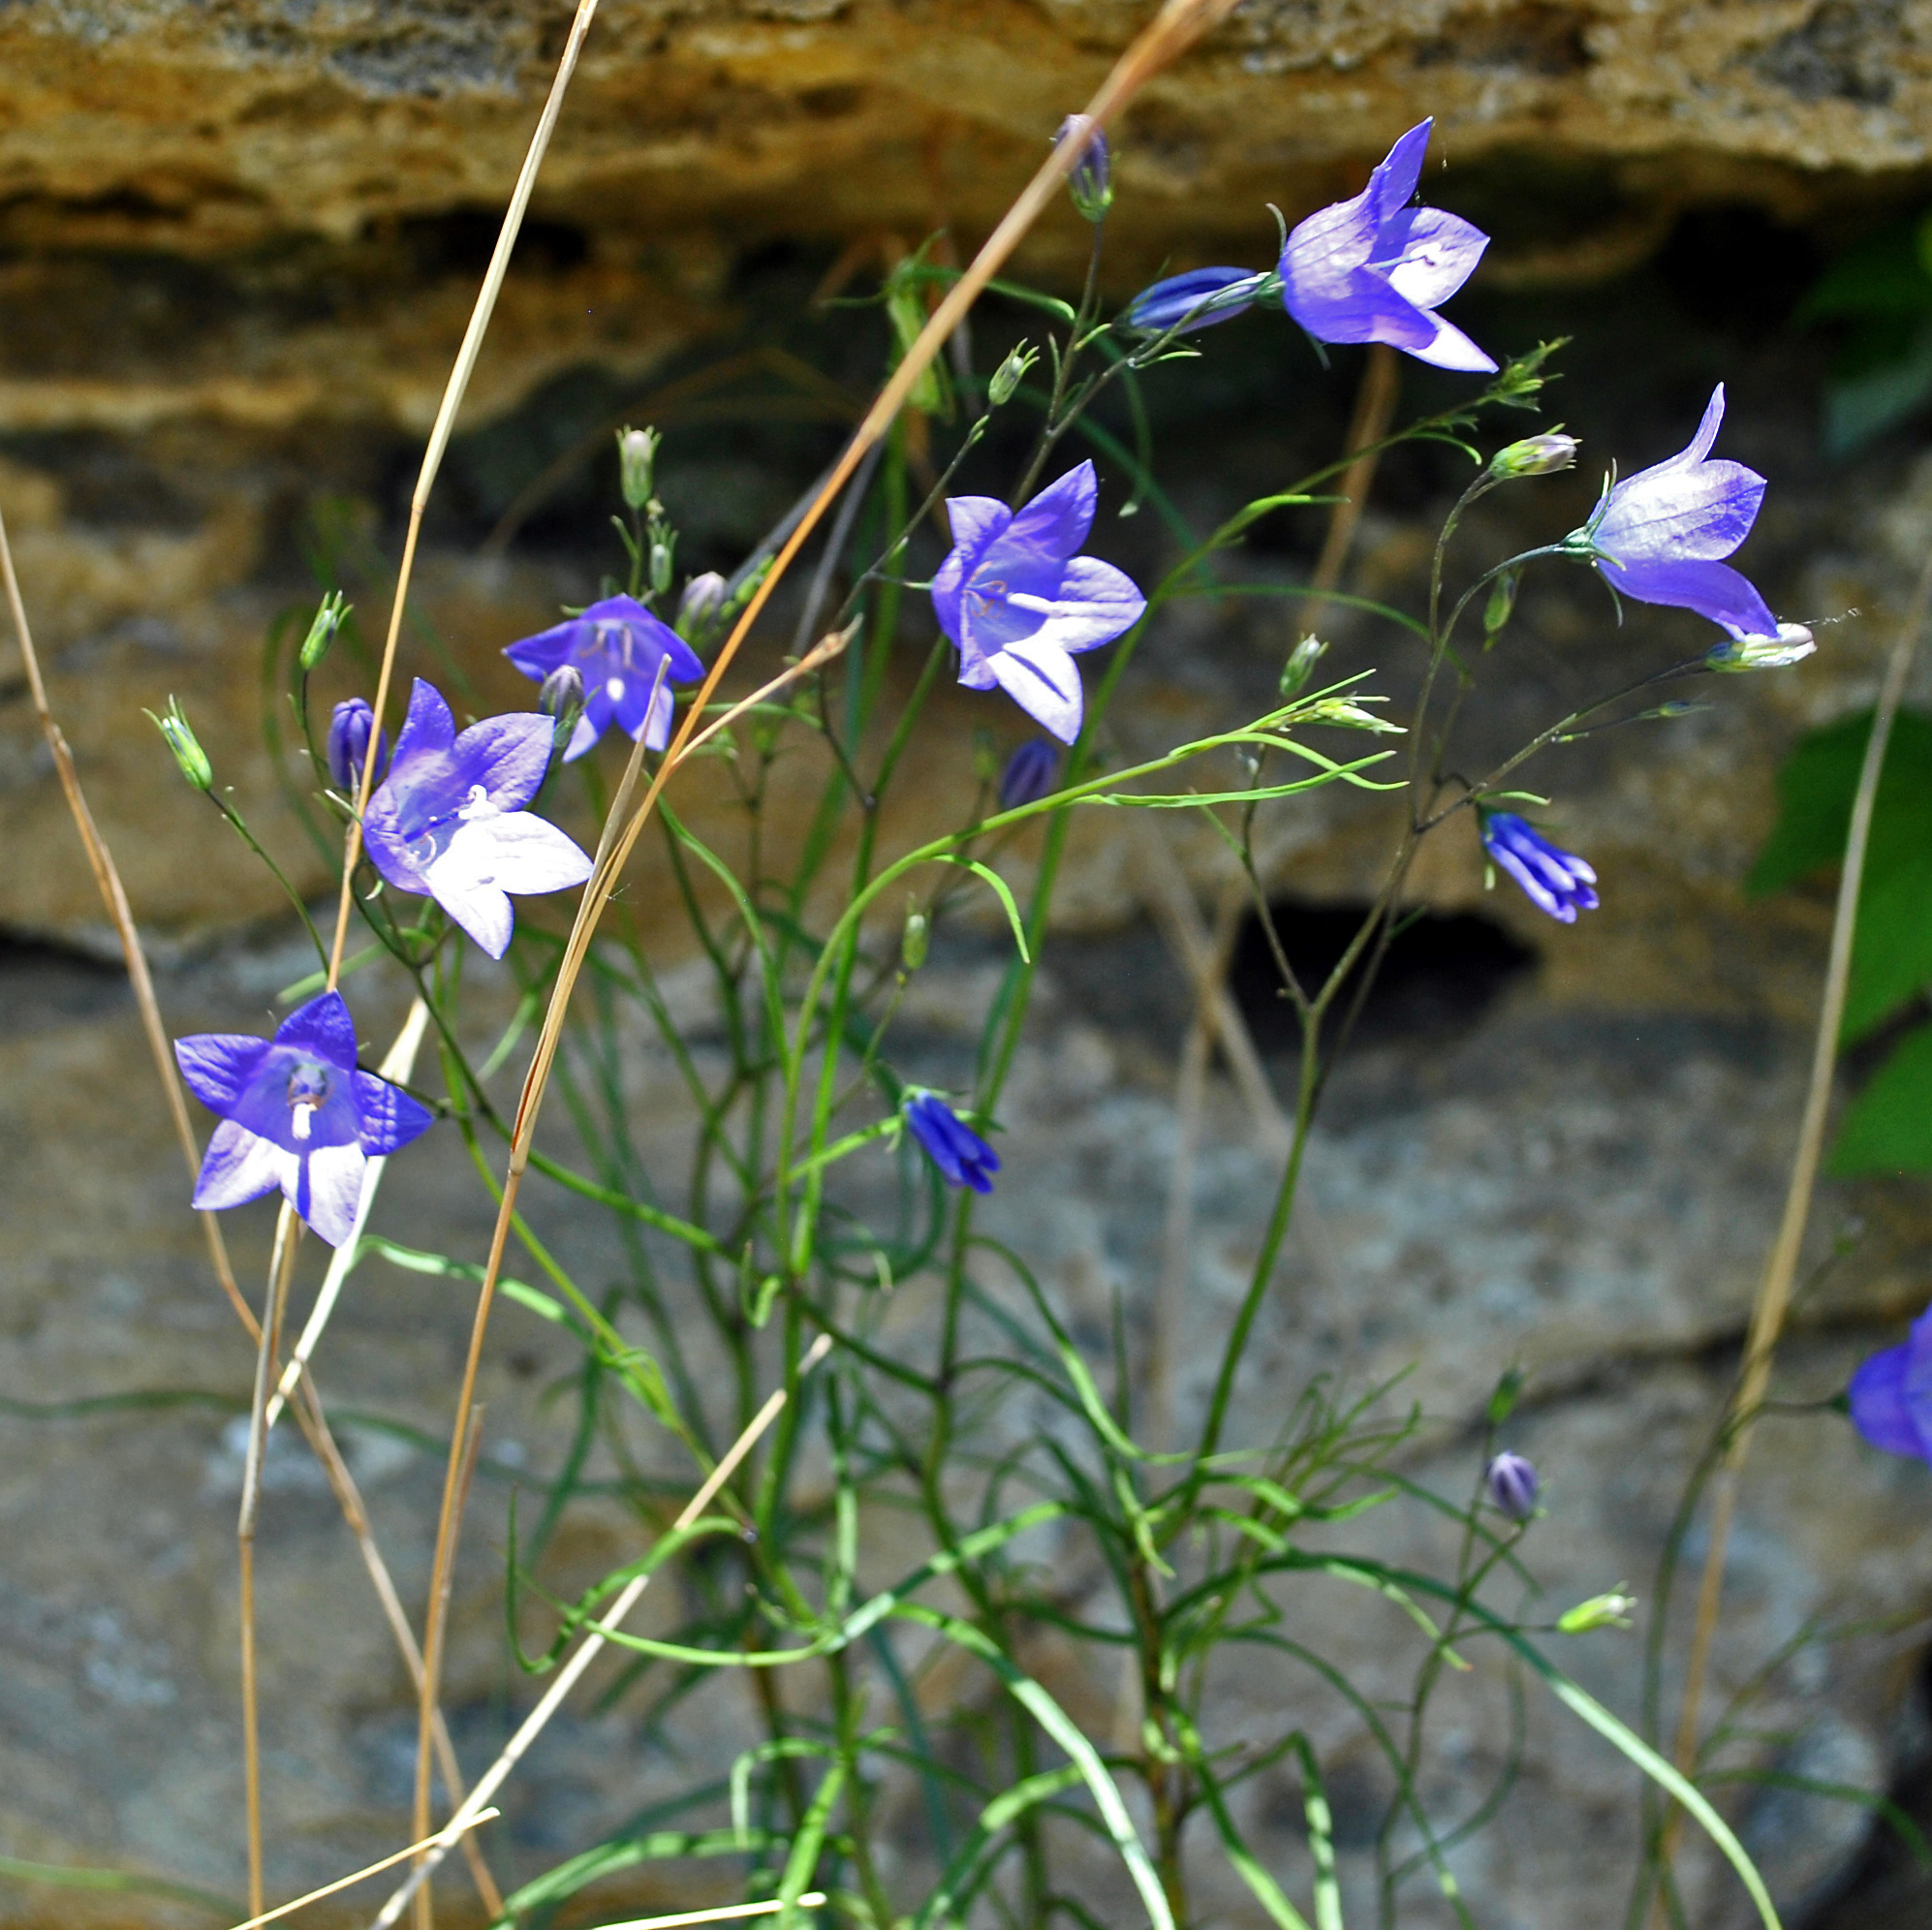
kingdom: Plantae
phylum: Tracheophyta
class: Magnoliopsida
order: Asterales
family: Campanulaceae
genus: Campanula
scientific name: Campanula intercedens
